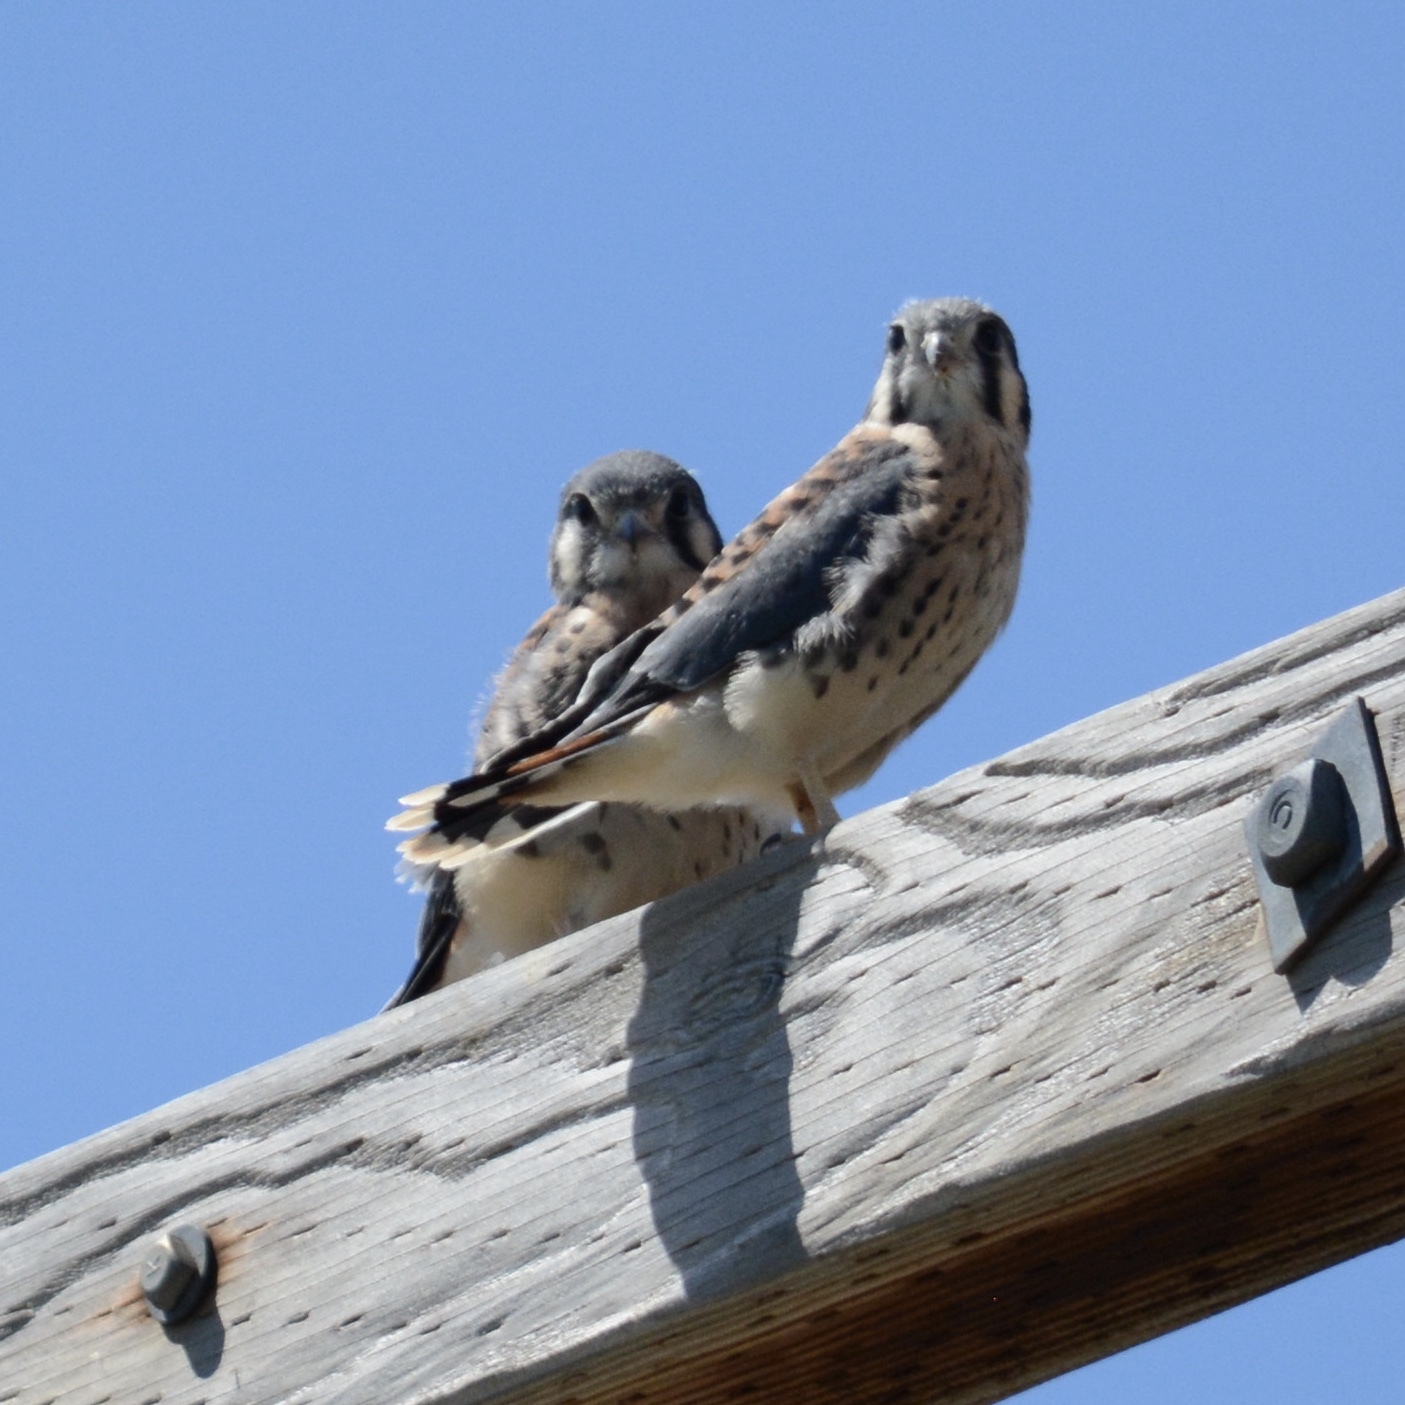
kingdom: Animalia
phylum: Chordata
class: Aves
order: Falconiformes
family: Falconidae
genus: Falco
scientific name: Falco sparverius
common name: American kestrel
